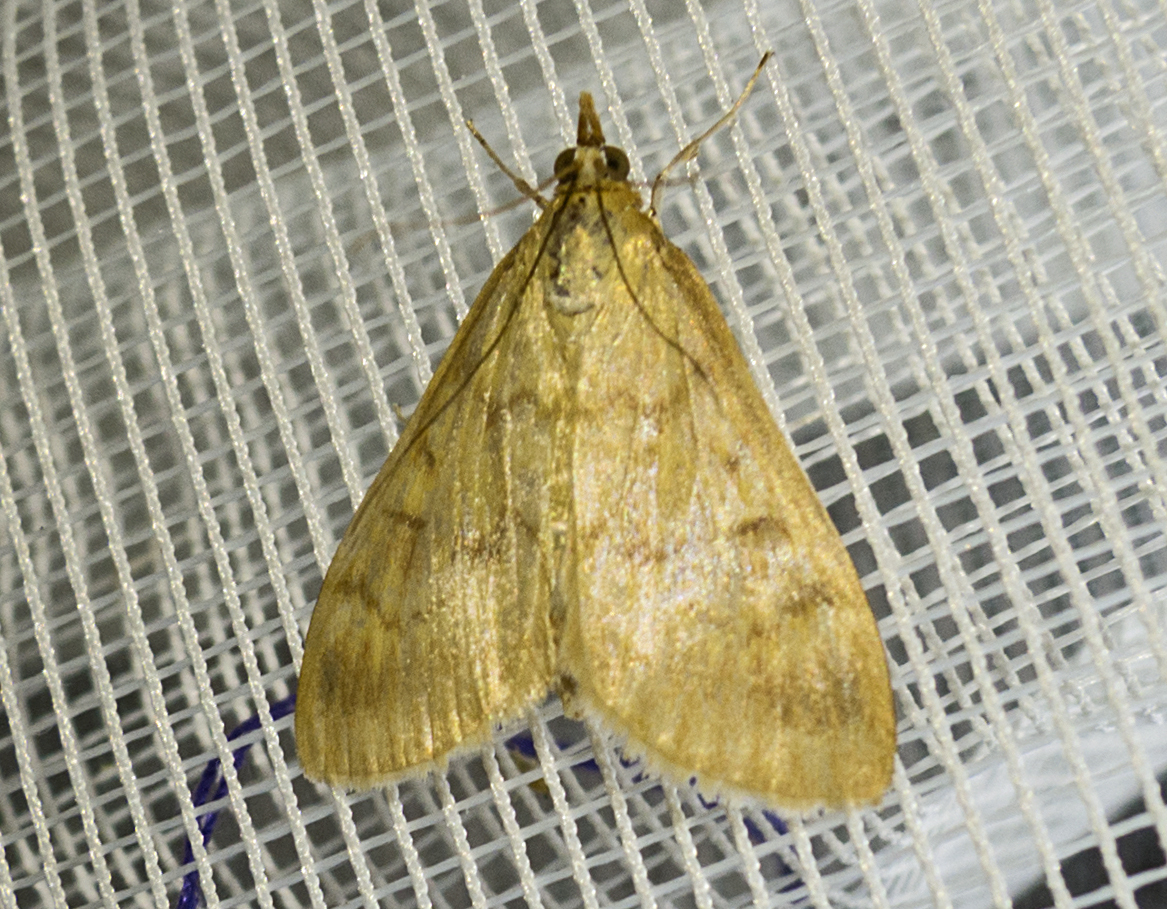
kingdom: Animalia
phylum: Arthropoda
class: Insecta
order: Lepidoptera
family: Crambidae
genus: Ostrinia
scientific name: Ostrinia nubilalis
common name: European corn borer
